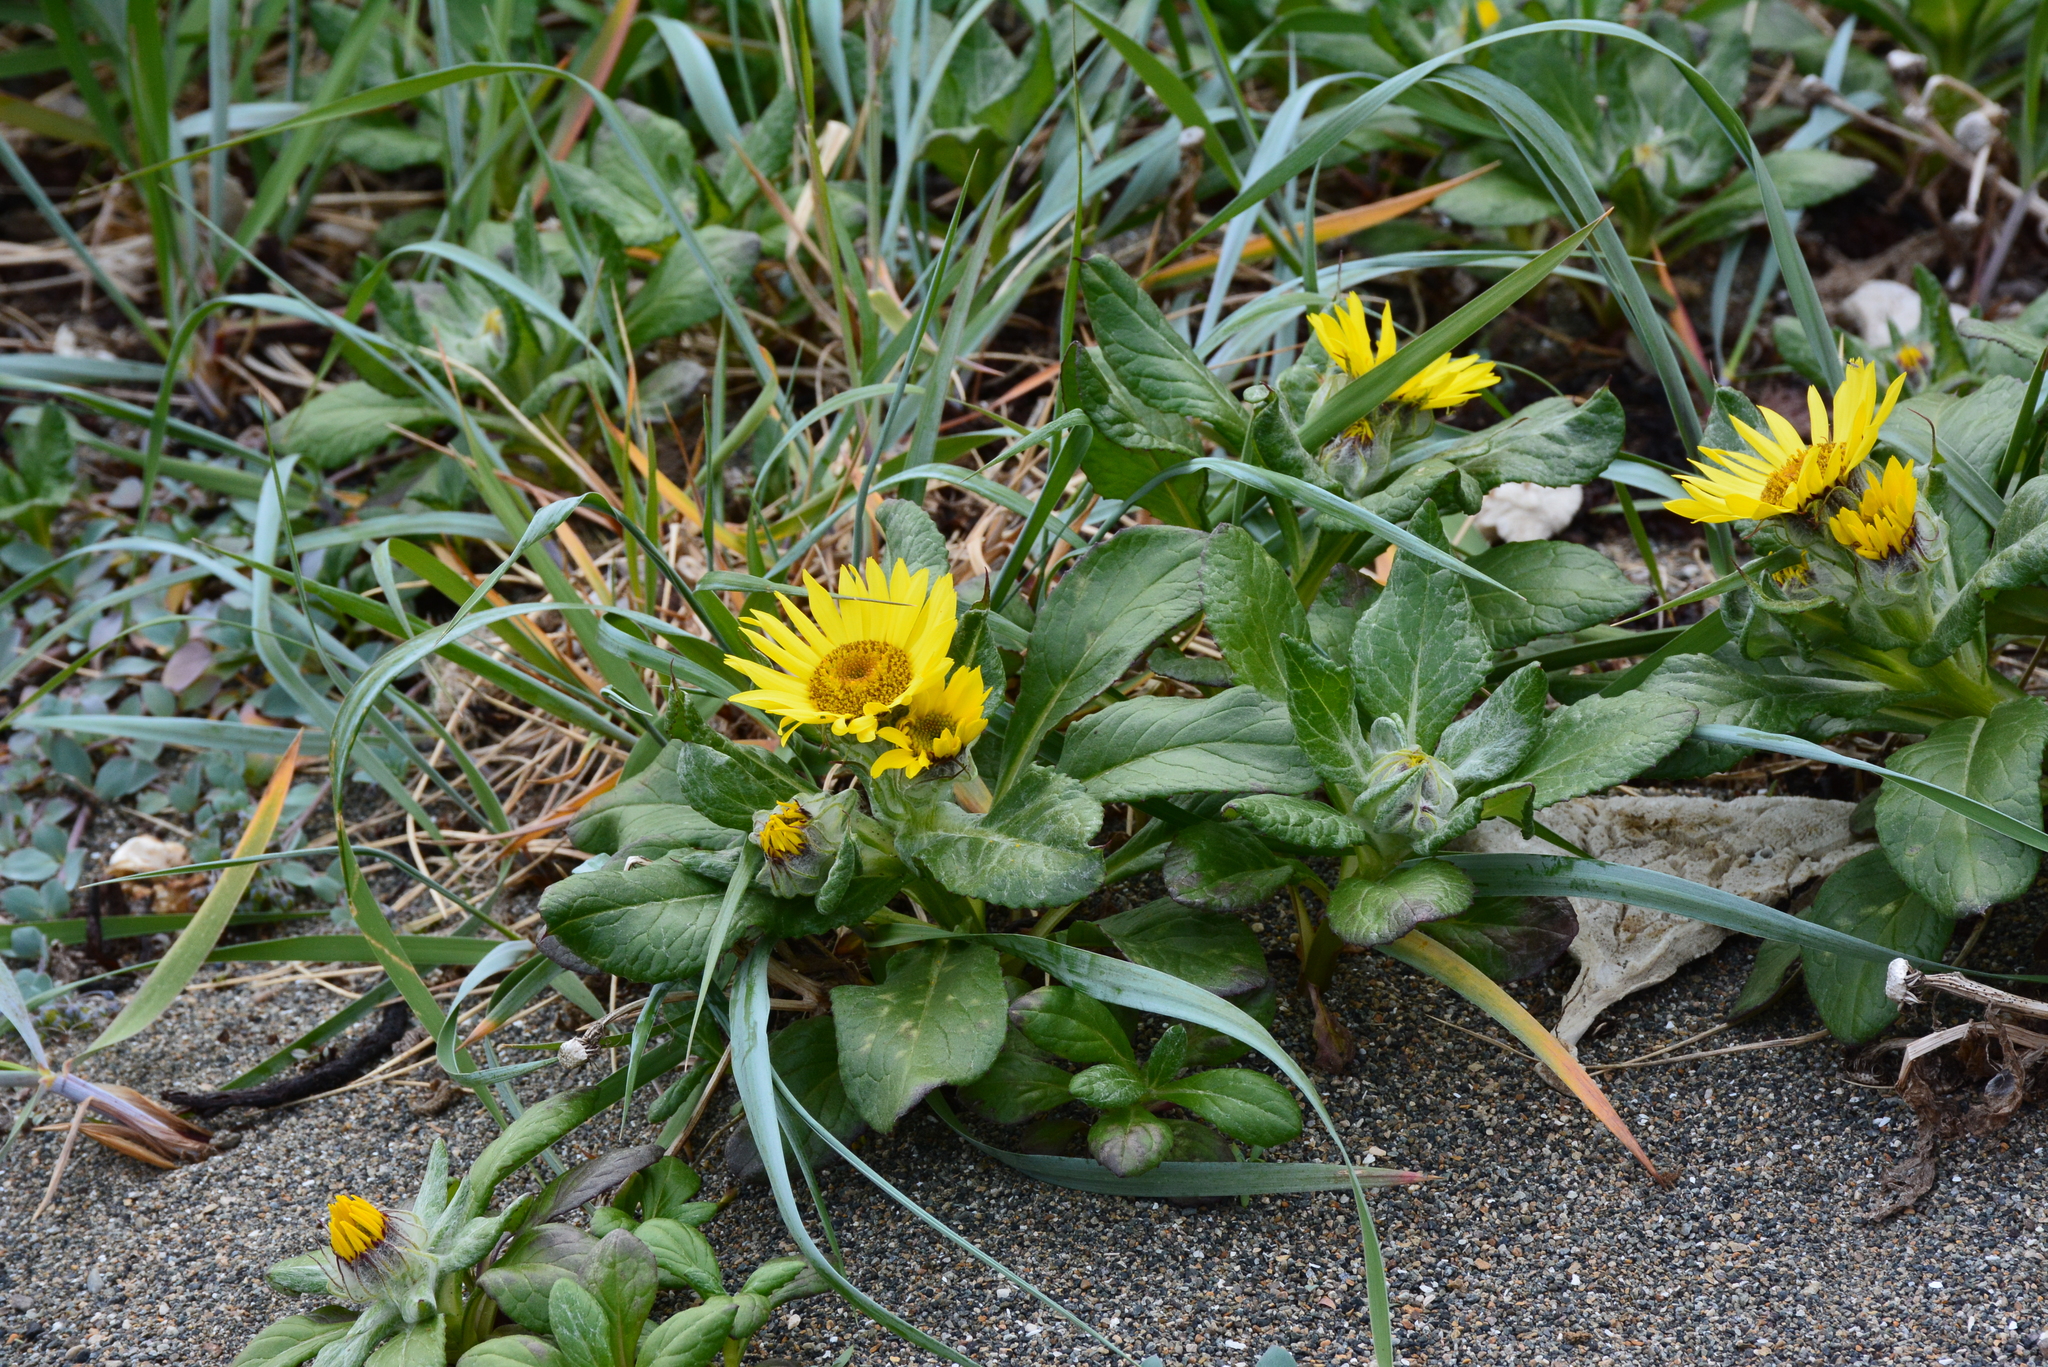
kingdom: Plantae
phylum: Tracheophyta
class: Magnoliopsida
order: Asterales
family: Asteraceae
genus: Jacobaea
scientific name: Jacobaea pseudoarnica
